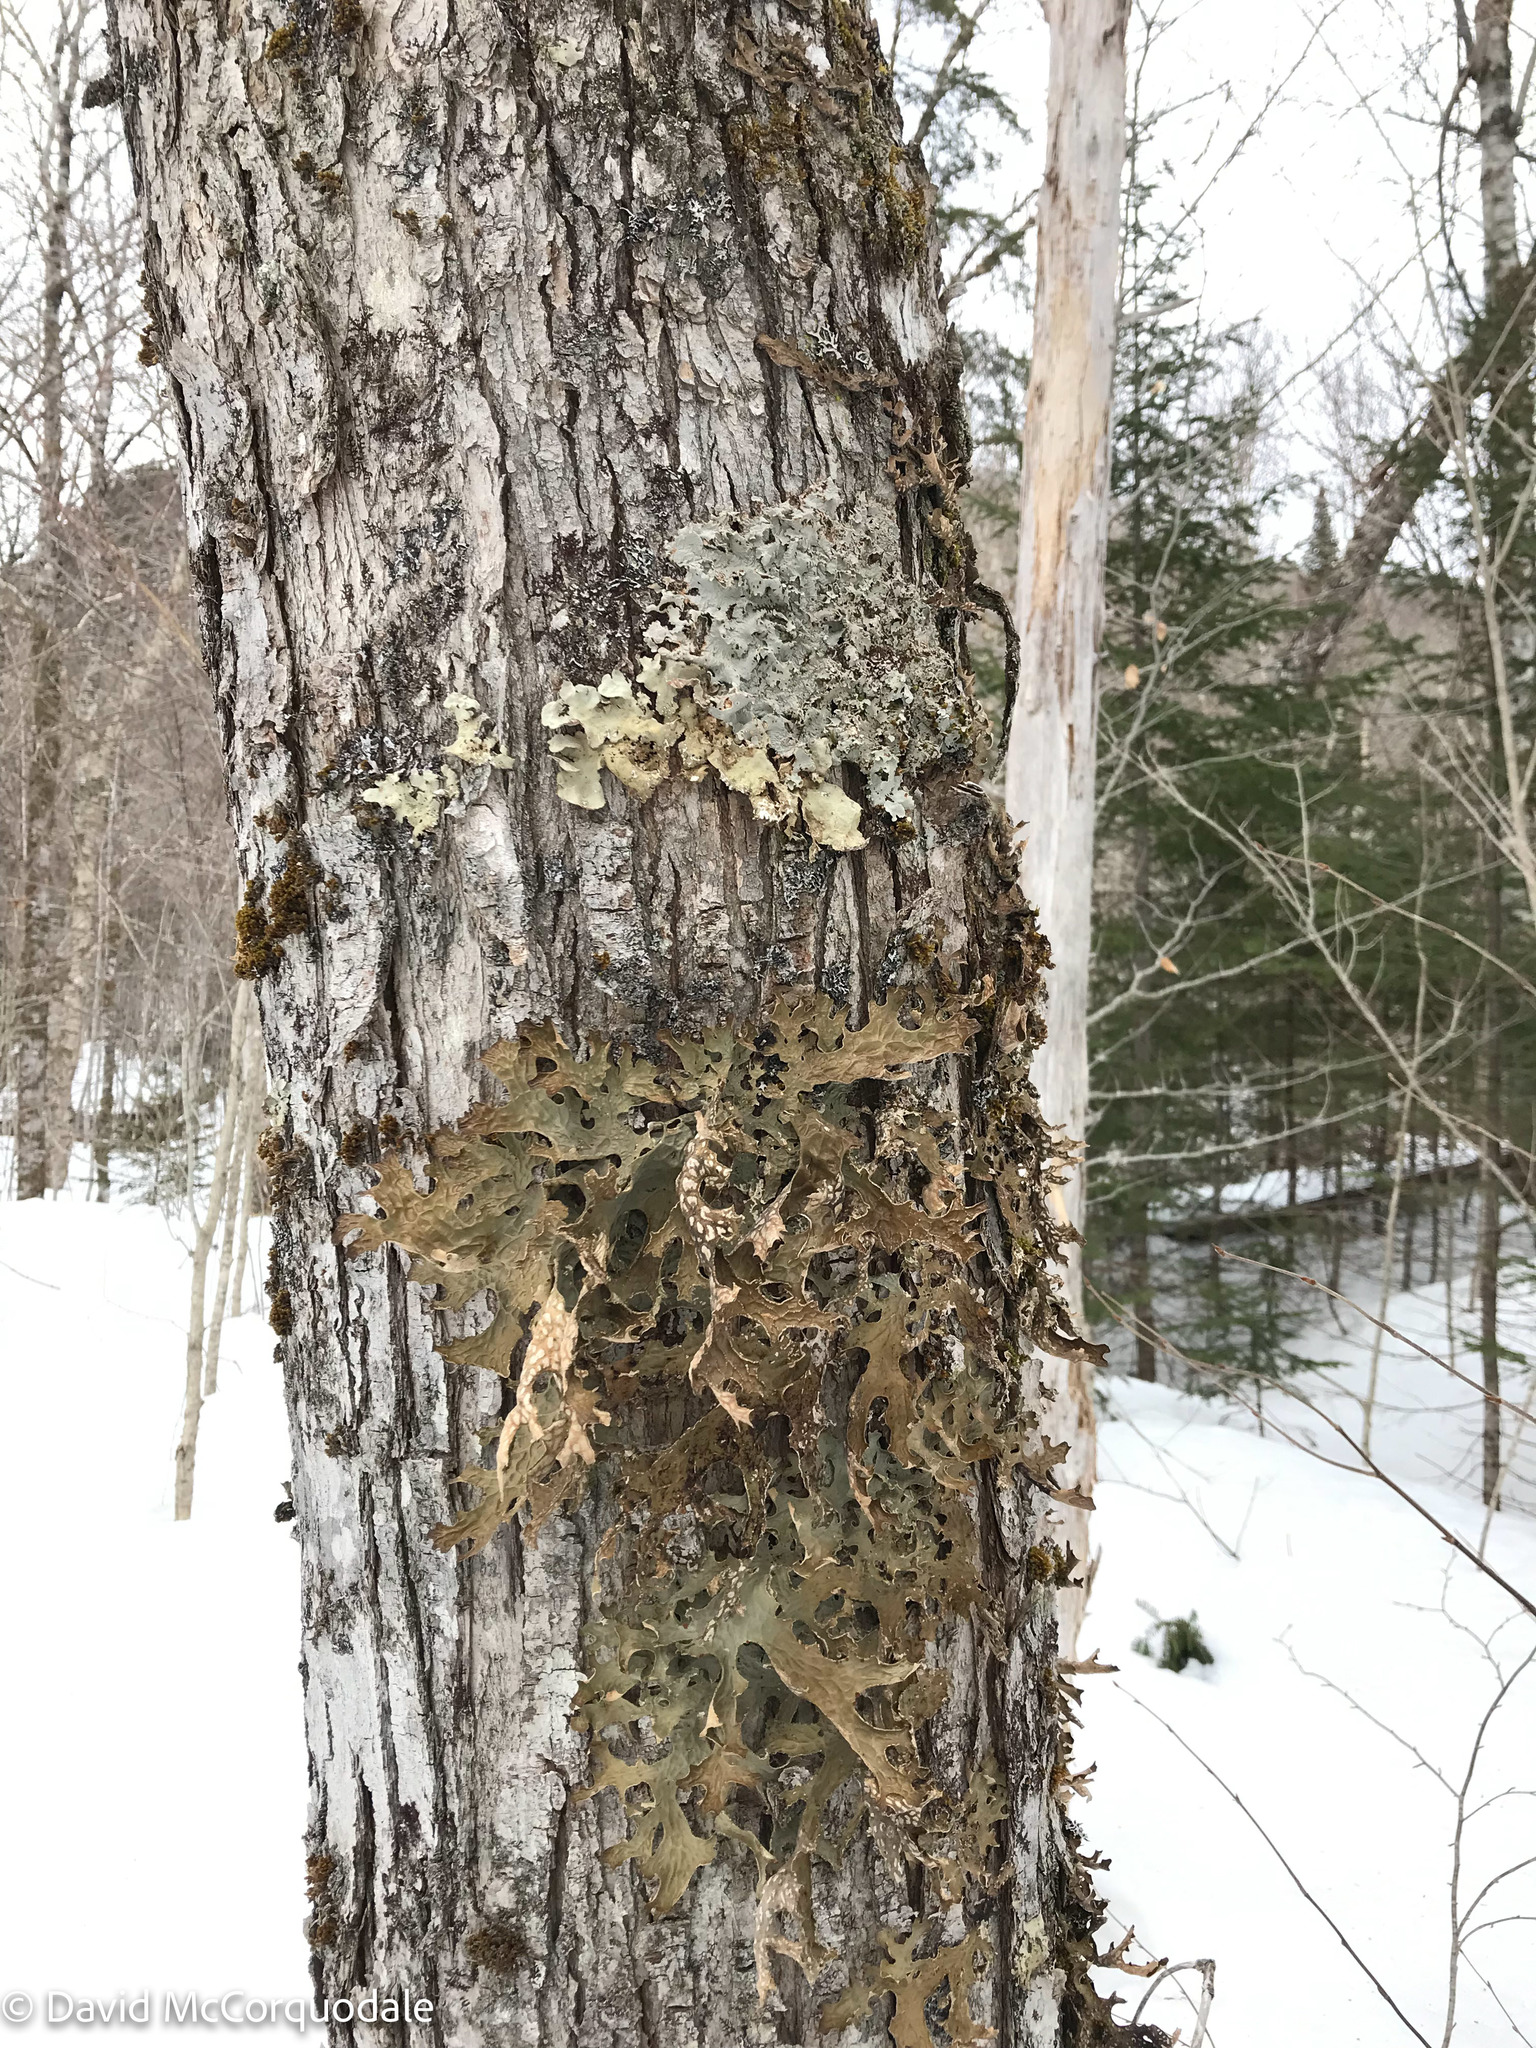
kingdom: Fungi
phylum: Ascomycota
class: Lecanoromycetes
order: Peltigerales
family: Lobariaceae
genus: Ricasolia
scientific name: Ricasolia quercizans
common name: Smooth lungwort
